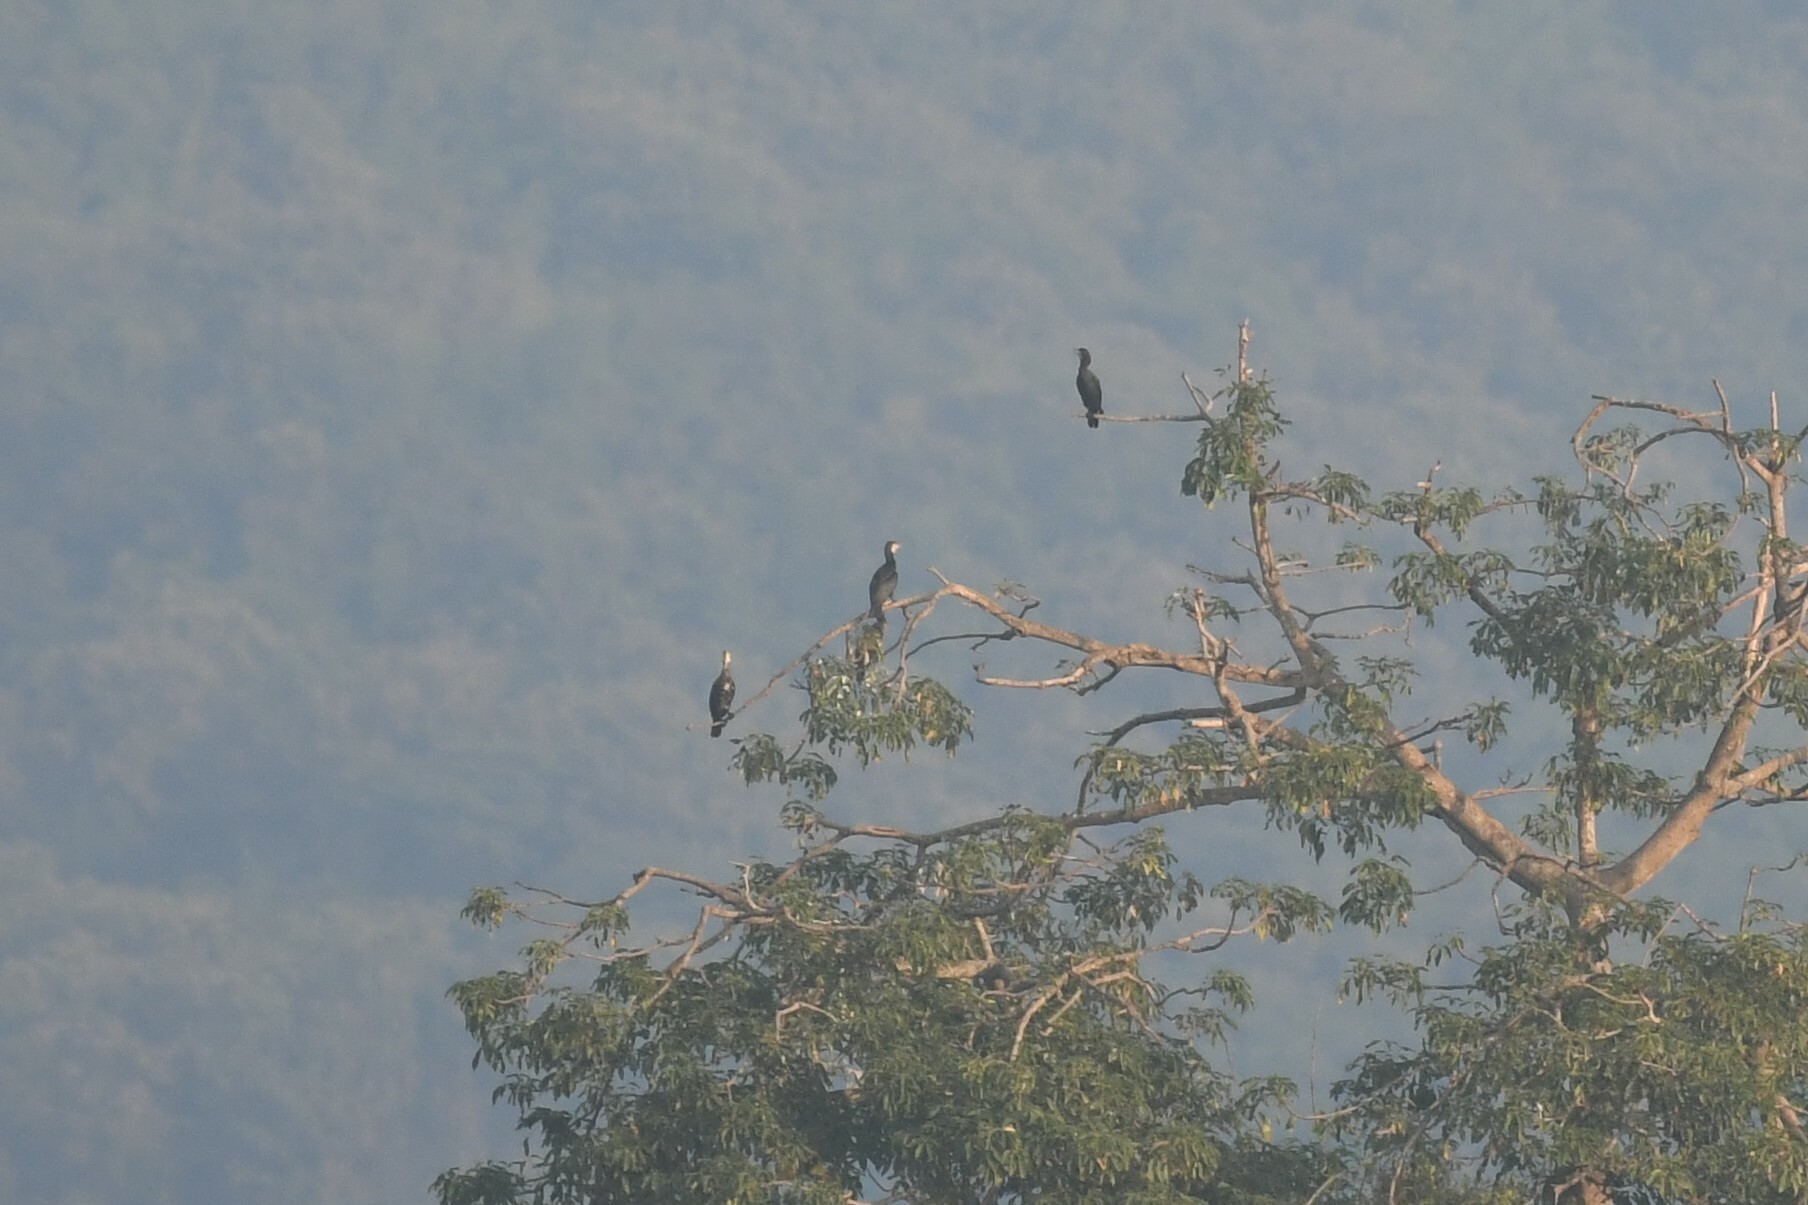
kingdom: Animalia
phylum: Chordata
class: Aves
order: Suliformes
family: Phalacrocoracidae
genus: Phalacrocorax
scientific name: Phalacrocorax carbo
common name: Great cormorant
